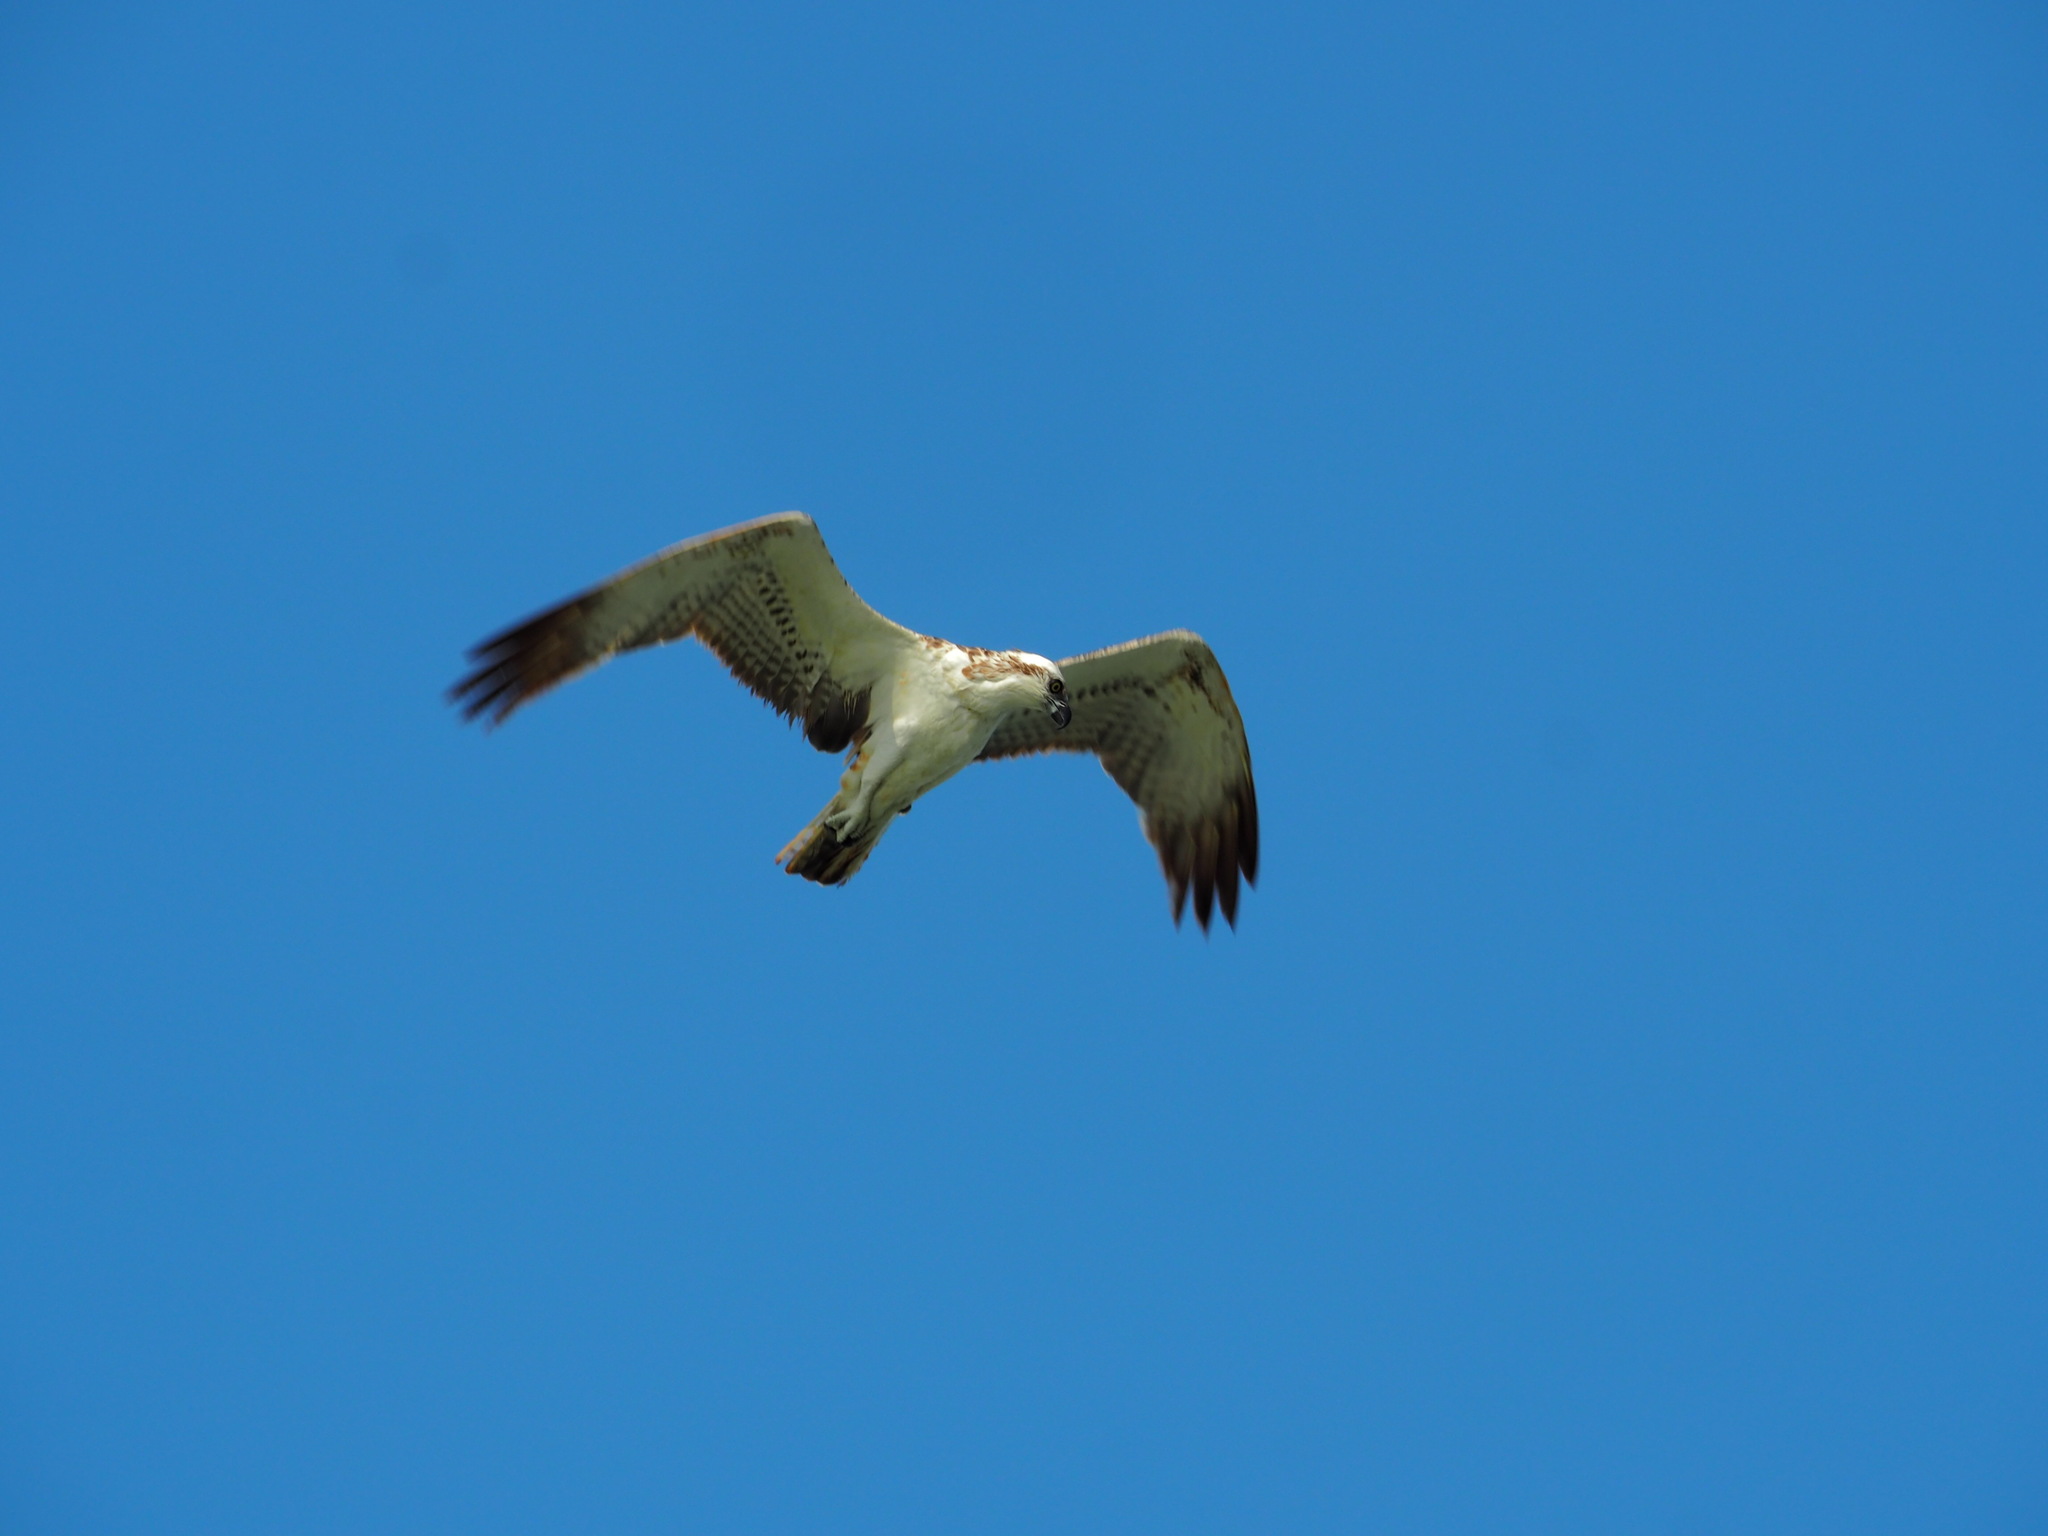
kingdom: Animalia
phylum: Chordata
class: Aves
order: Accipitriformes
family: Pandionidae
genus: Pandion
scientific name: Pandion haliaetus
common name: Osprey
